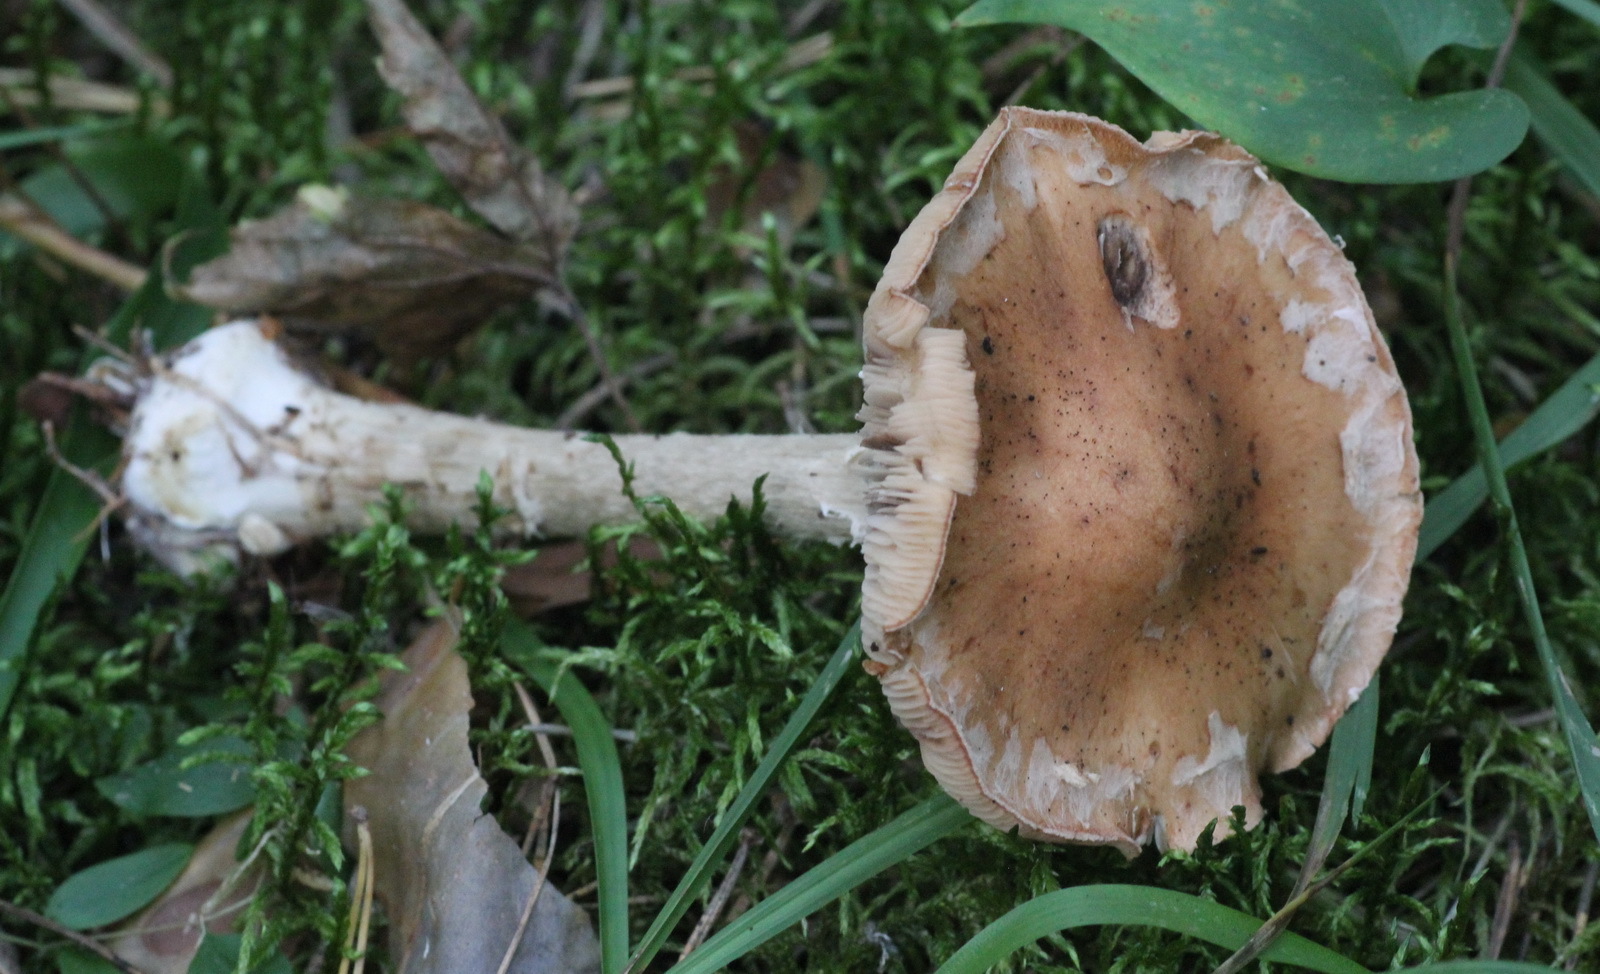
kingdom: Fungi
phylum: Basidiomycota
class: Agaricomycetes
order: Agaricales
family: Tricholomataceae
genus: Leucocortinarius
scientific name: Leucocortinarius bulbiger
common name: White webcap
